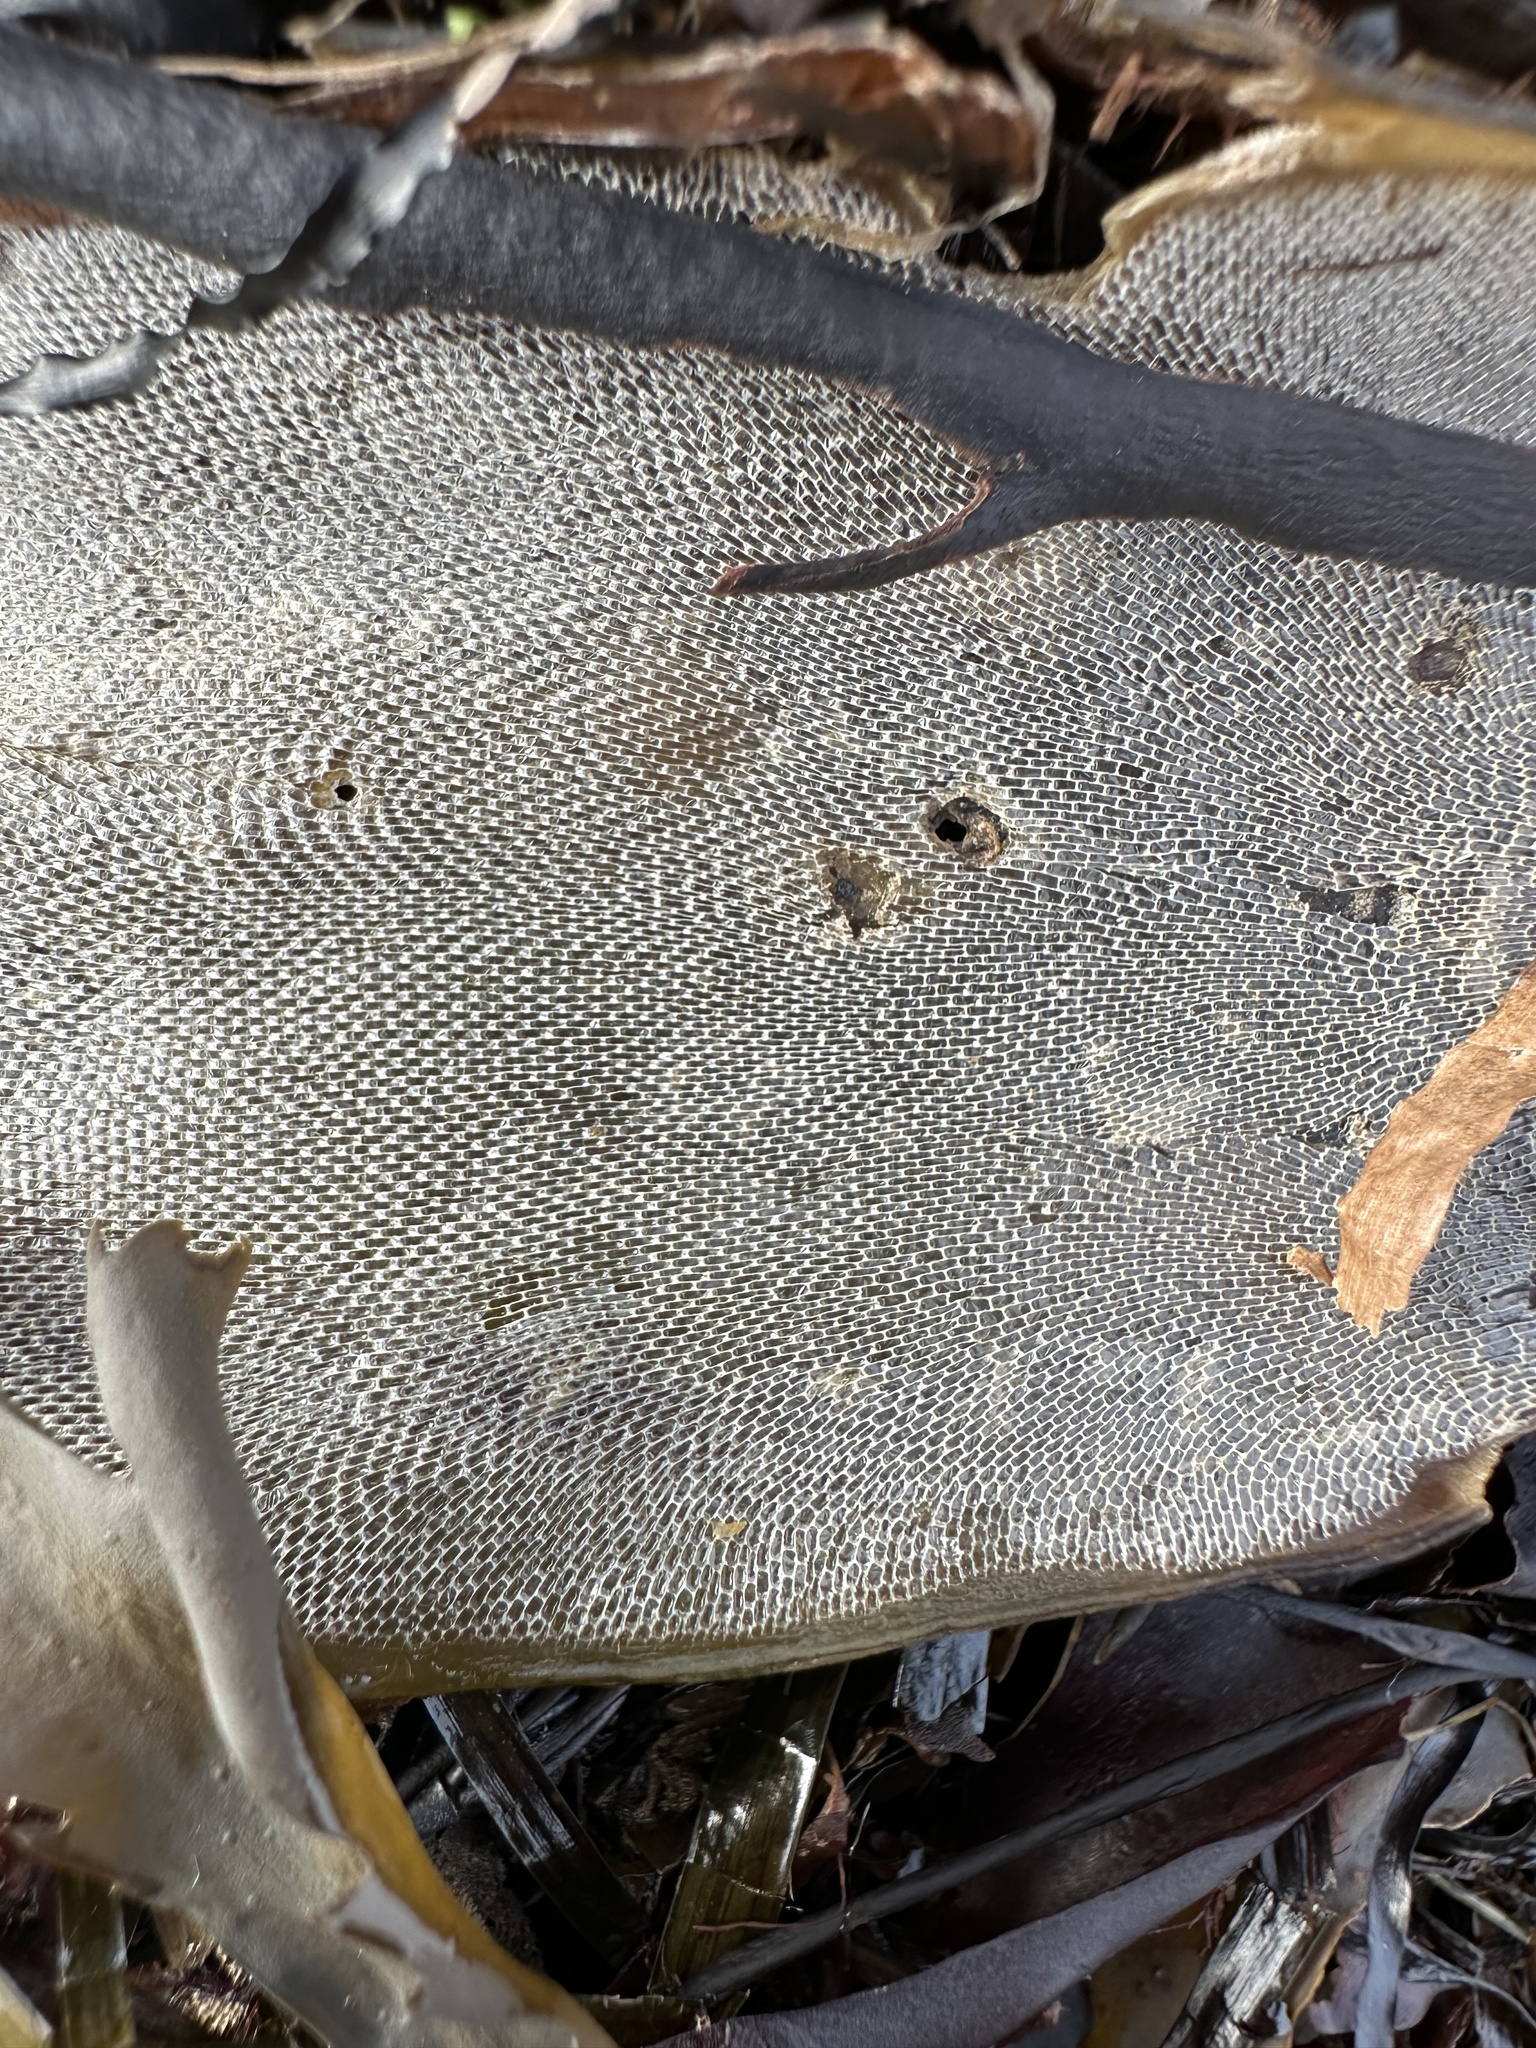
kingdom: Animalia
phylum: Bryozoa
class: Gymnolaemata
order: Cheilostomatida
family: Membraniporidae
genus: Membranipora
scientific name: Membranipora membranacea
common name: Sea mat
